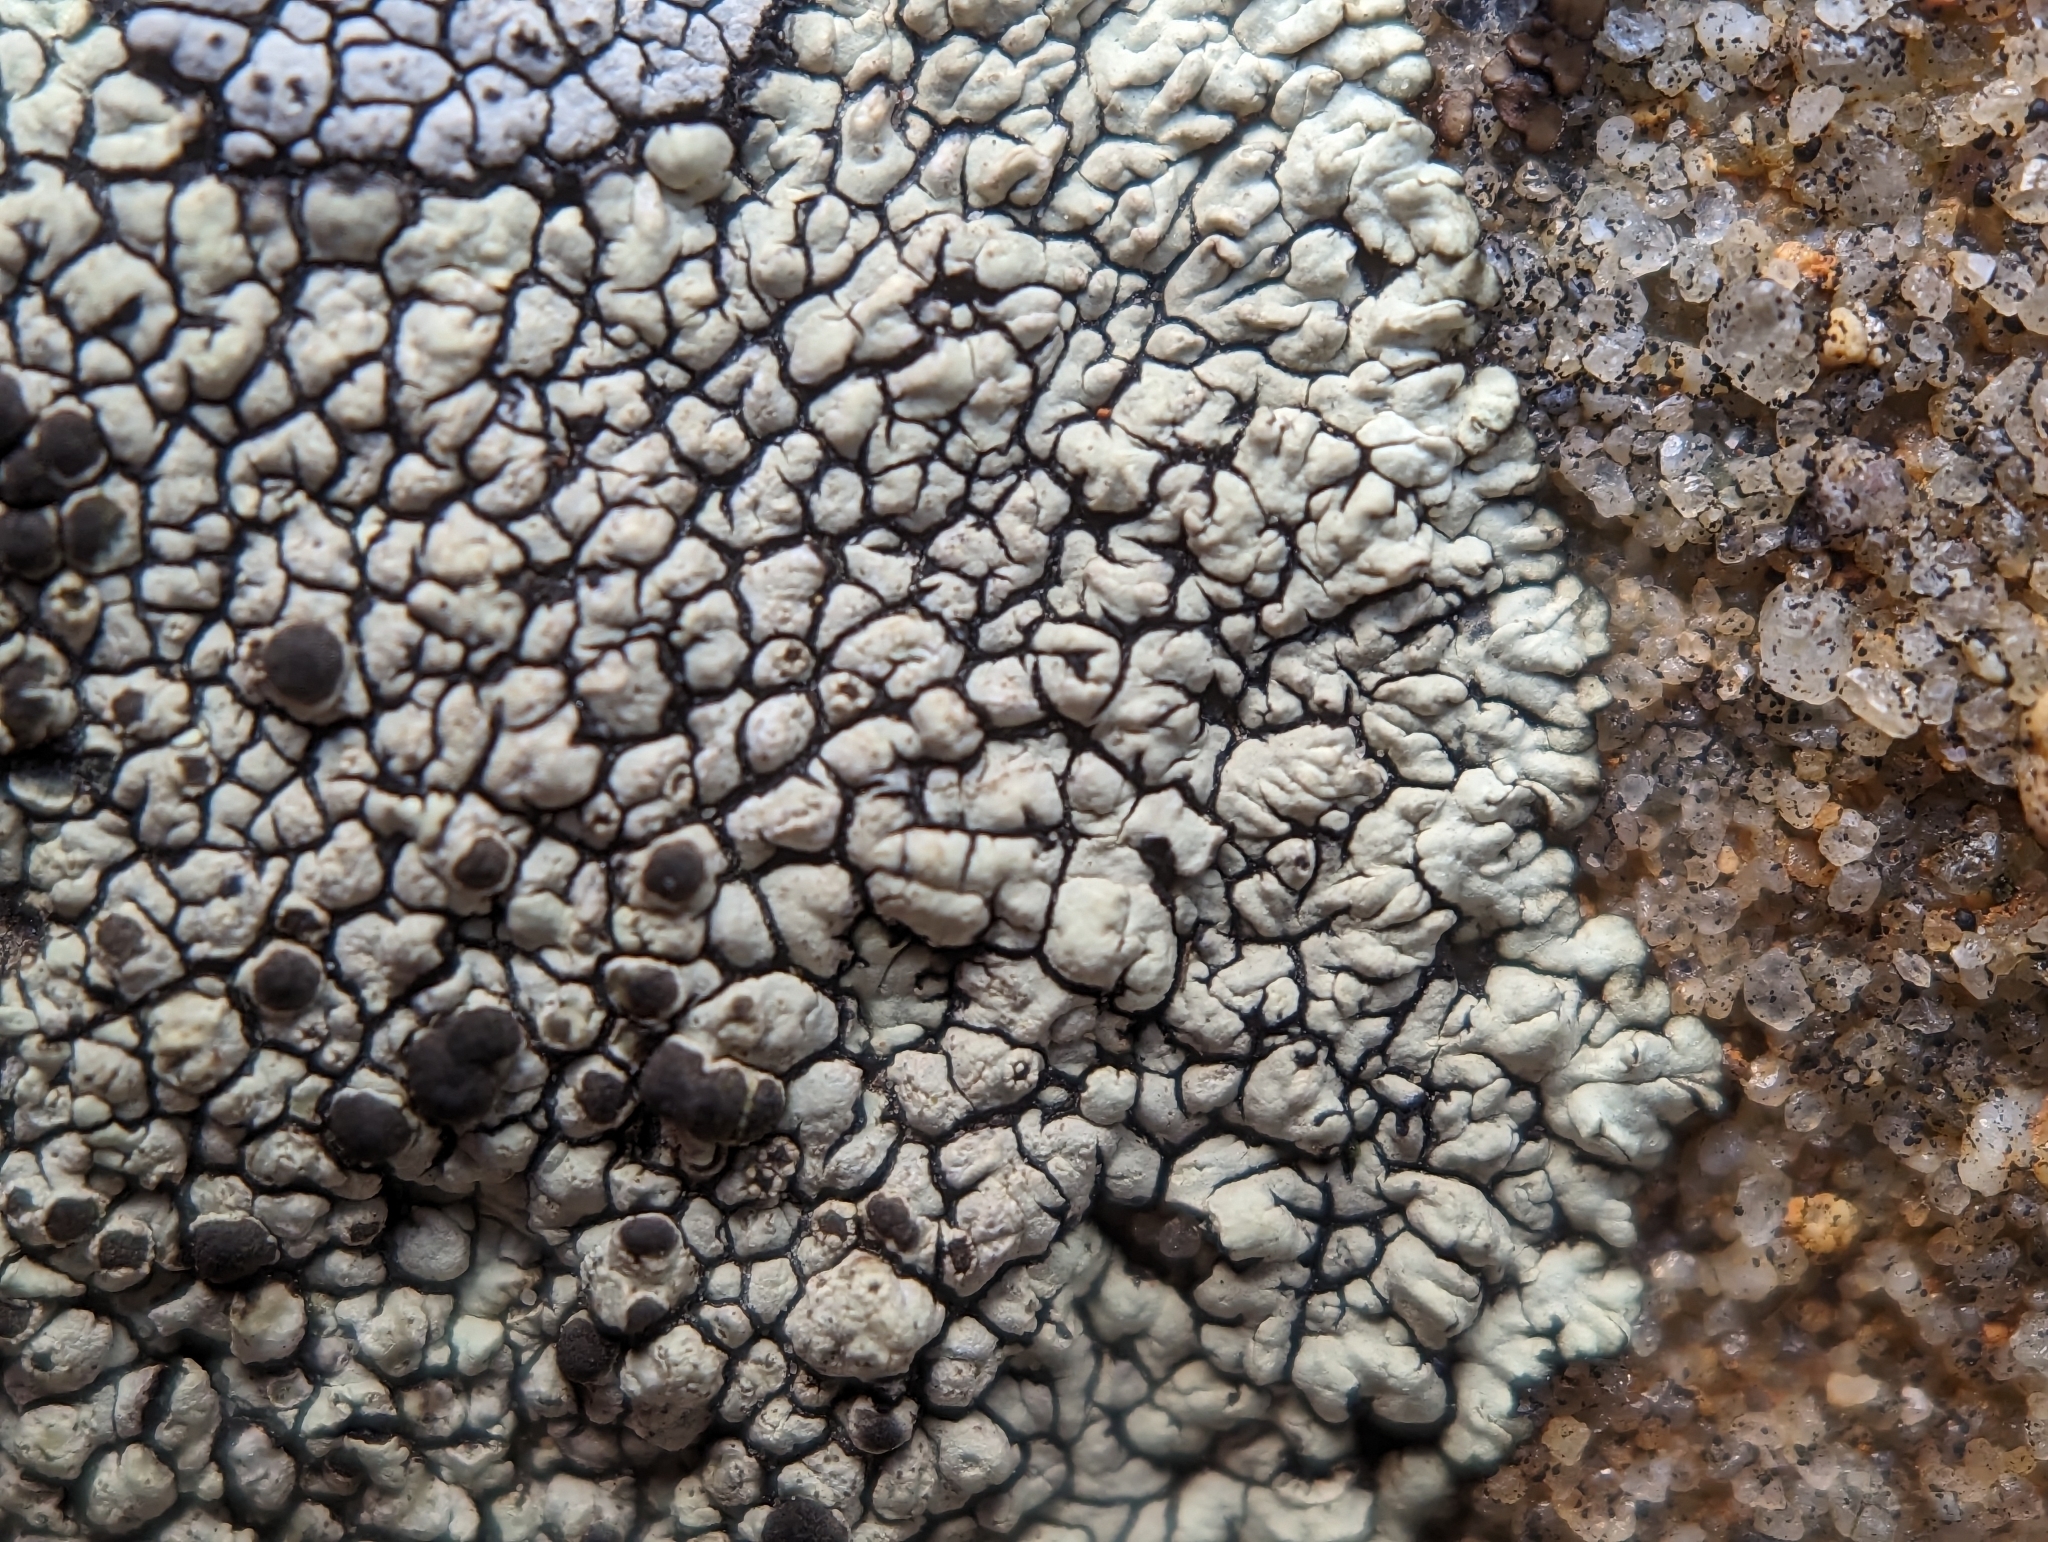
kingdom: Fungi
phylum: Ascomycota
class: Lecanoromycetes
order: Caliciales
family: Caliciaceae
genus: Dimelaena
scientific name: Dimelaena oreina
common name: Golden moonglow lichen
